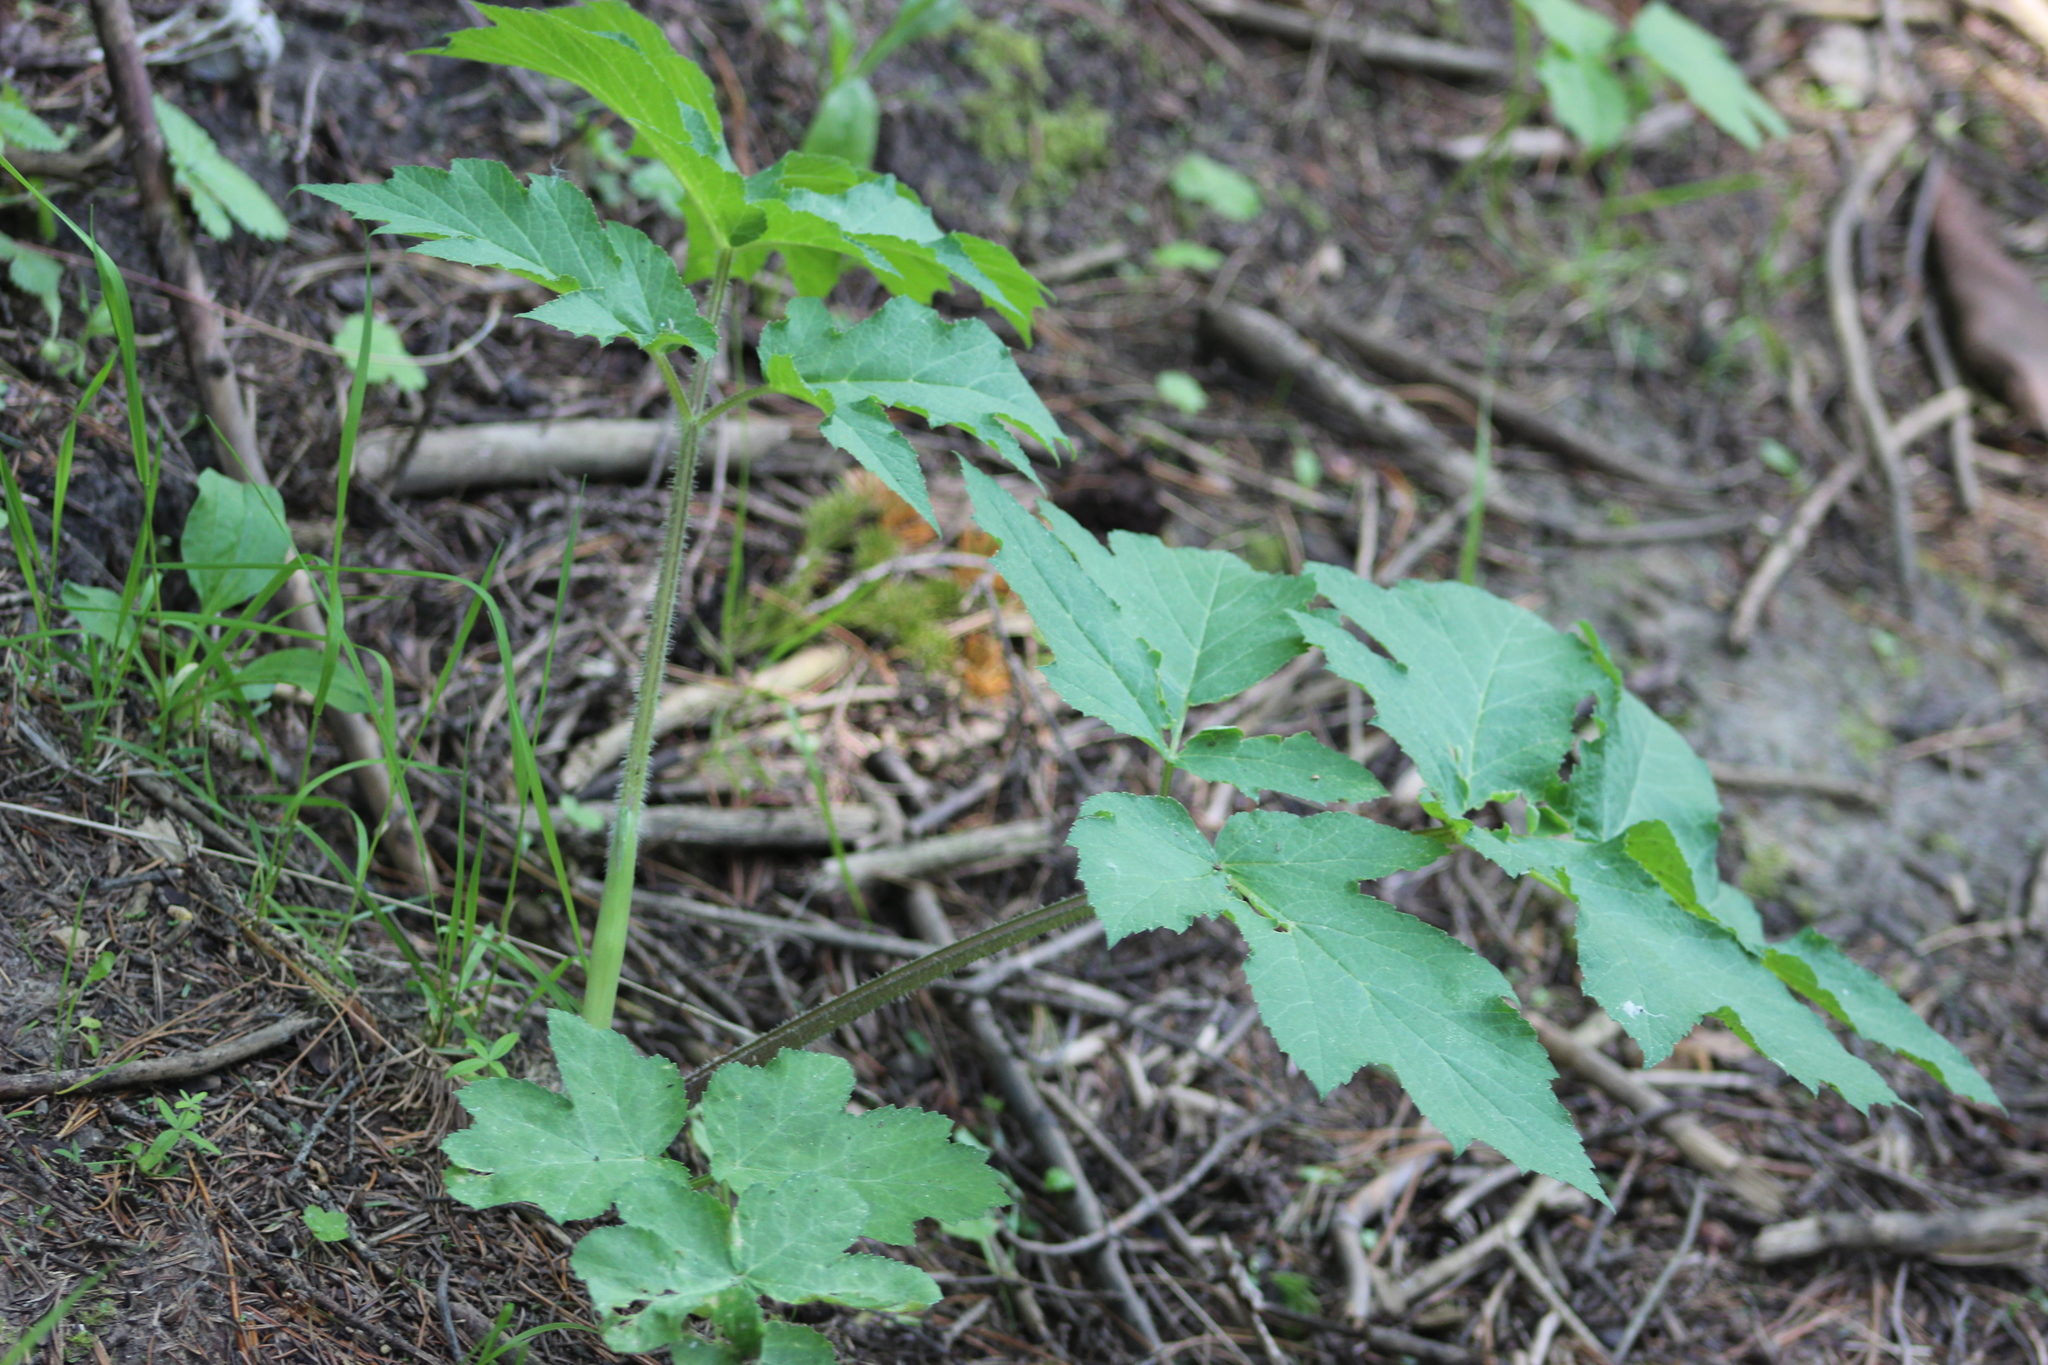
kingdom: Plantae
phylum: Tracheophyta
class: Magnoliopsida
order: Apiales
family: Apiaceae
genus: Heracleum
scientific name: Heracleum sphondylium
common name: Hogweed
